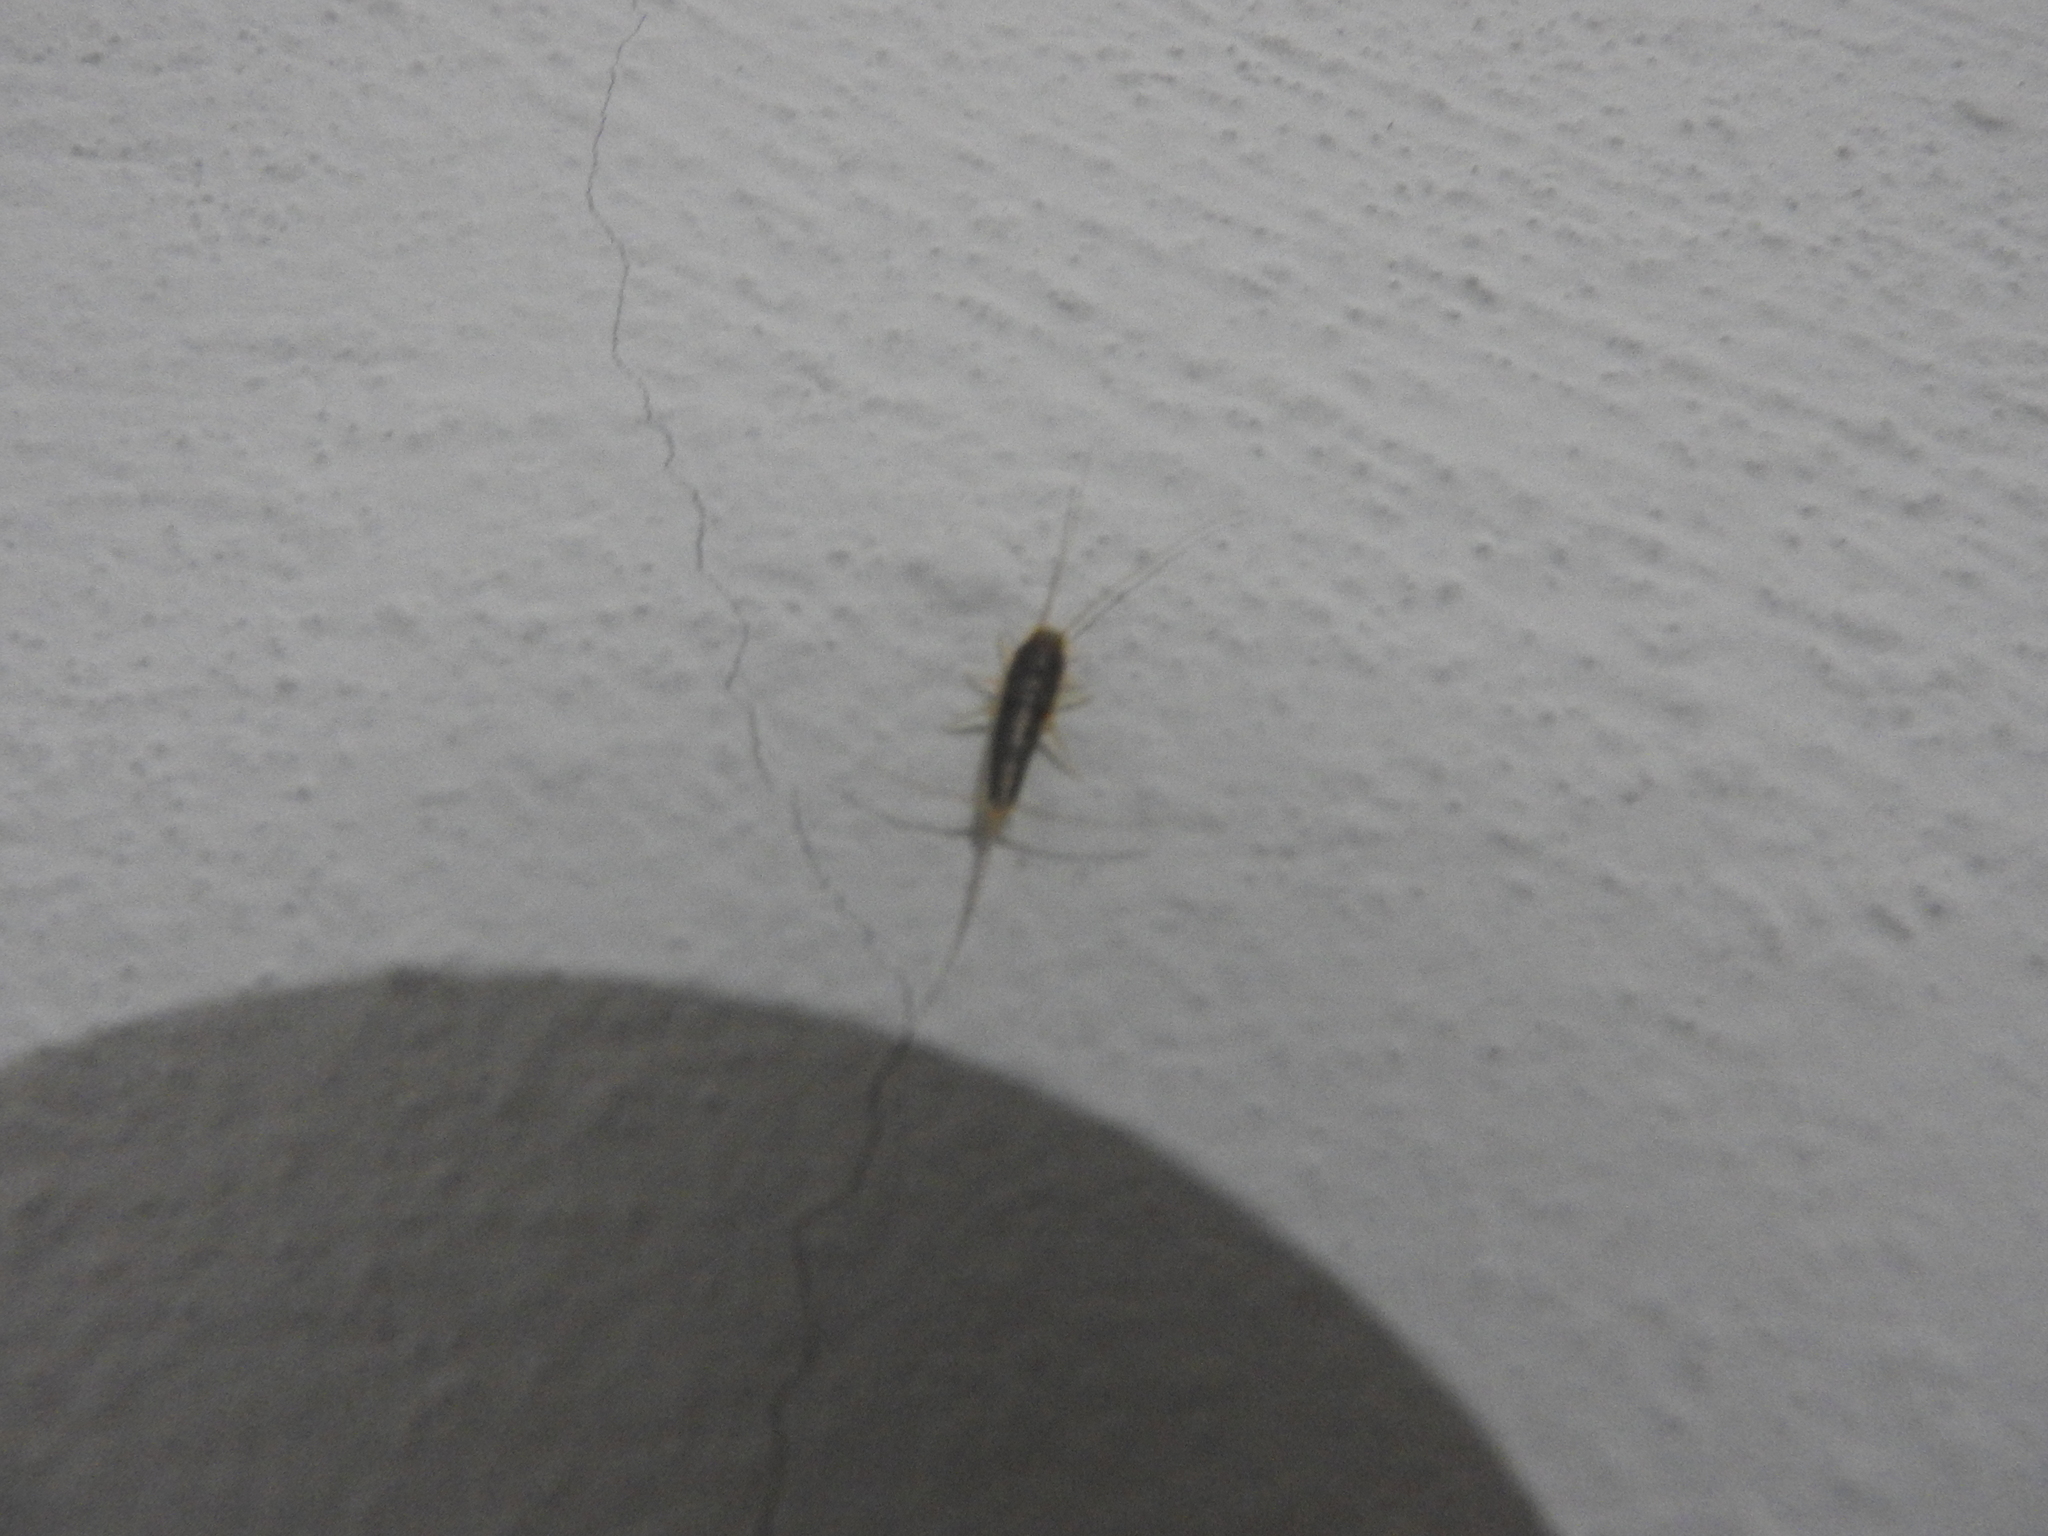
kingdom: Animalia
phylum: Arthropoda
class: Insecta
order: Zygentoma
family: Lepismatidae
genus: Ctenolepisma
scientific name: Ctenolepisma longicaudatum
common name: Silverfish
